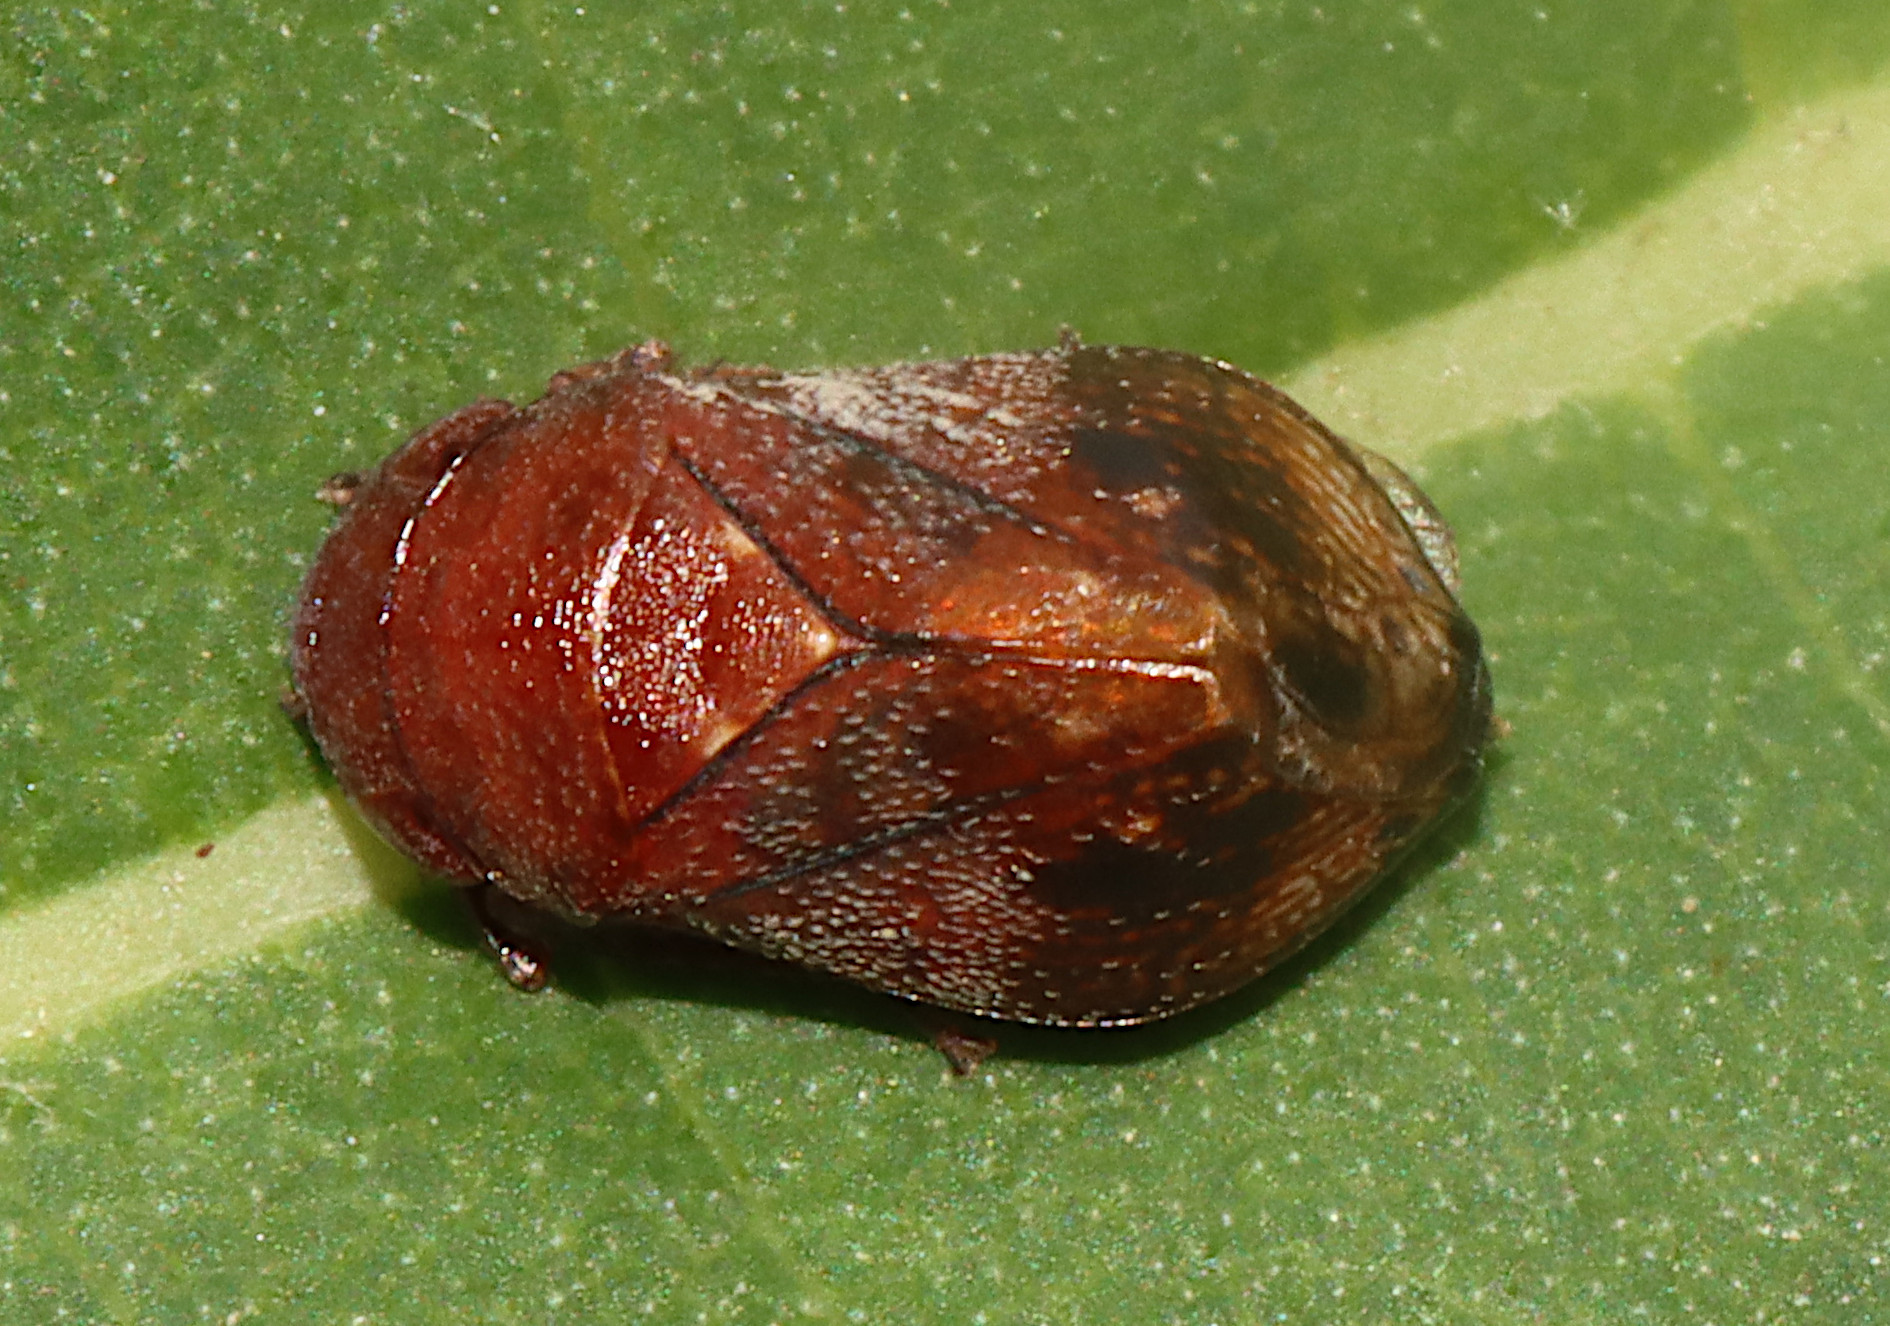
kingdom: Animalia
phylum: Arthropoda
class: Insecta
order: Hemiptera
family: Cicadellidae
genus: Penthimia
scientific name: Penthimia americana
